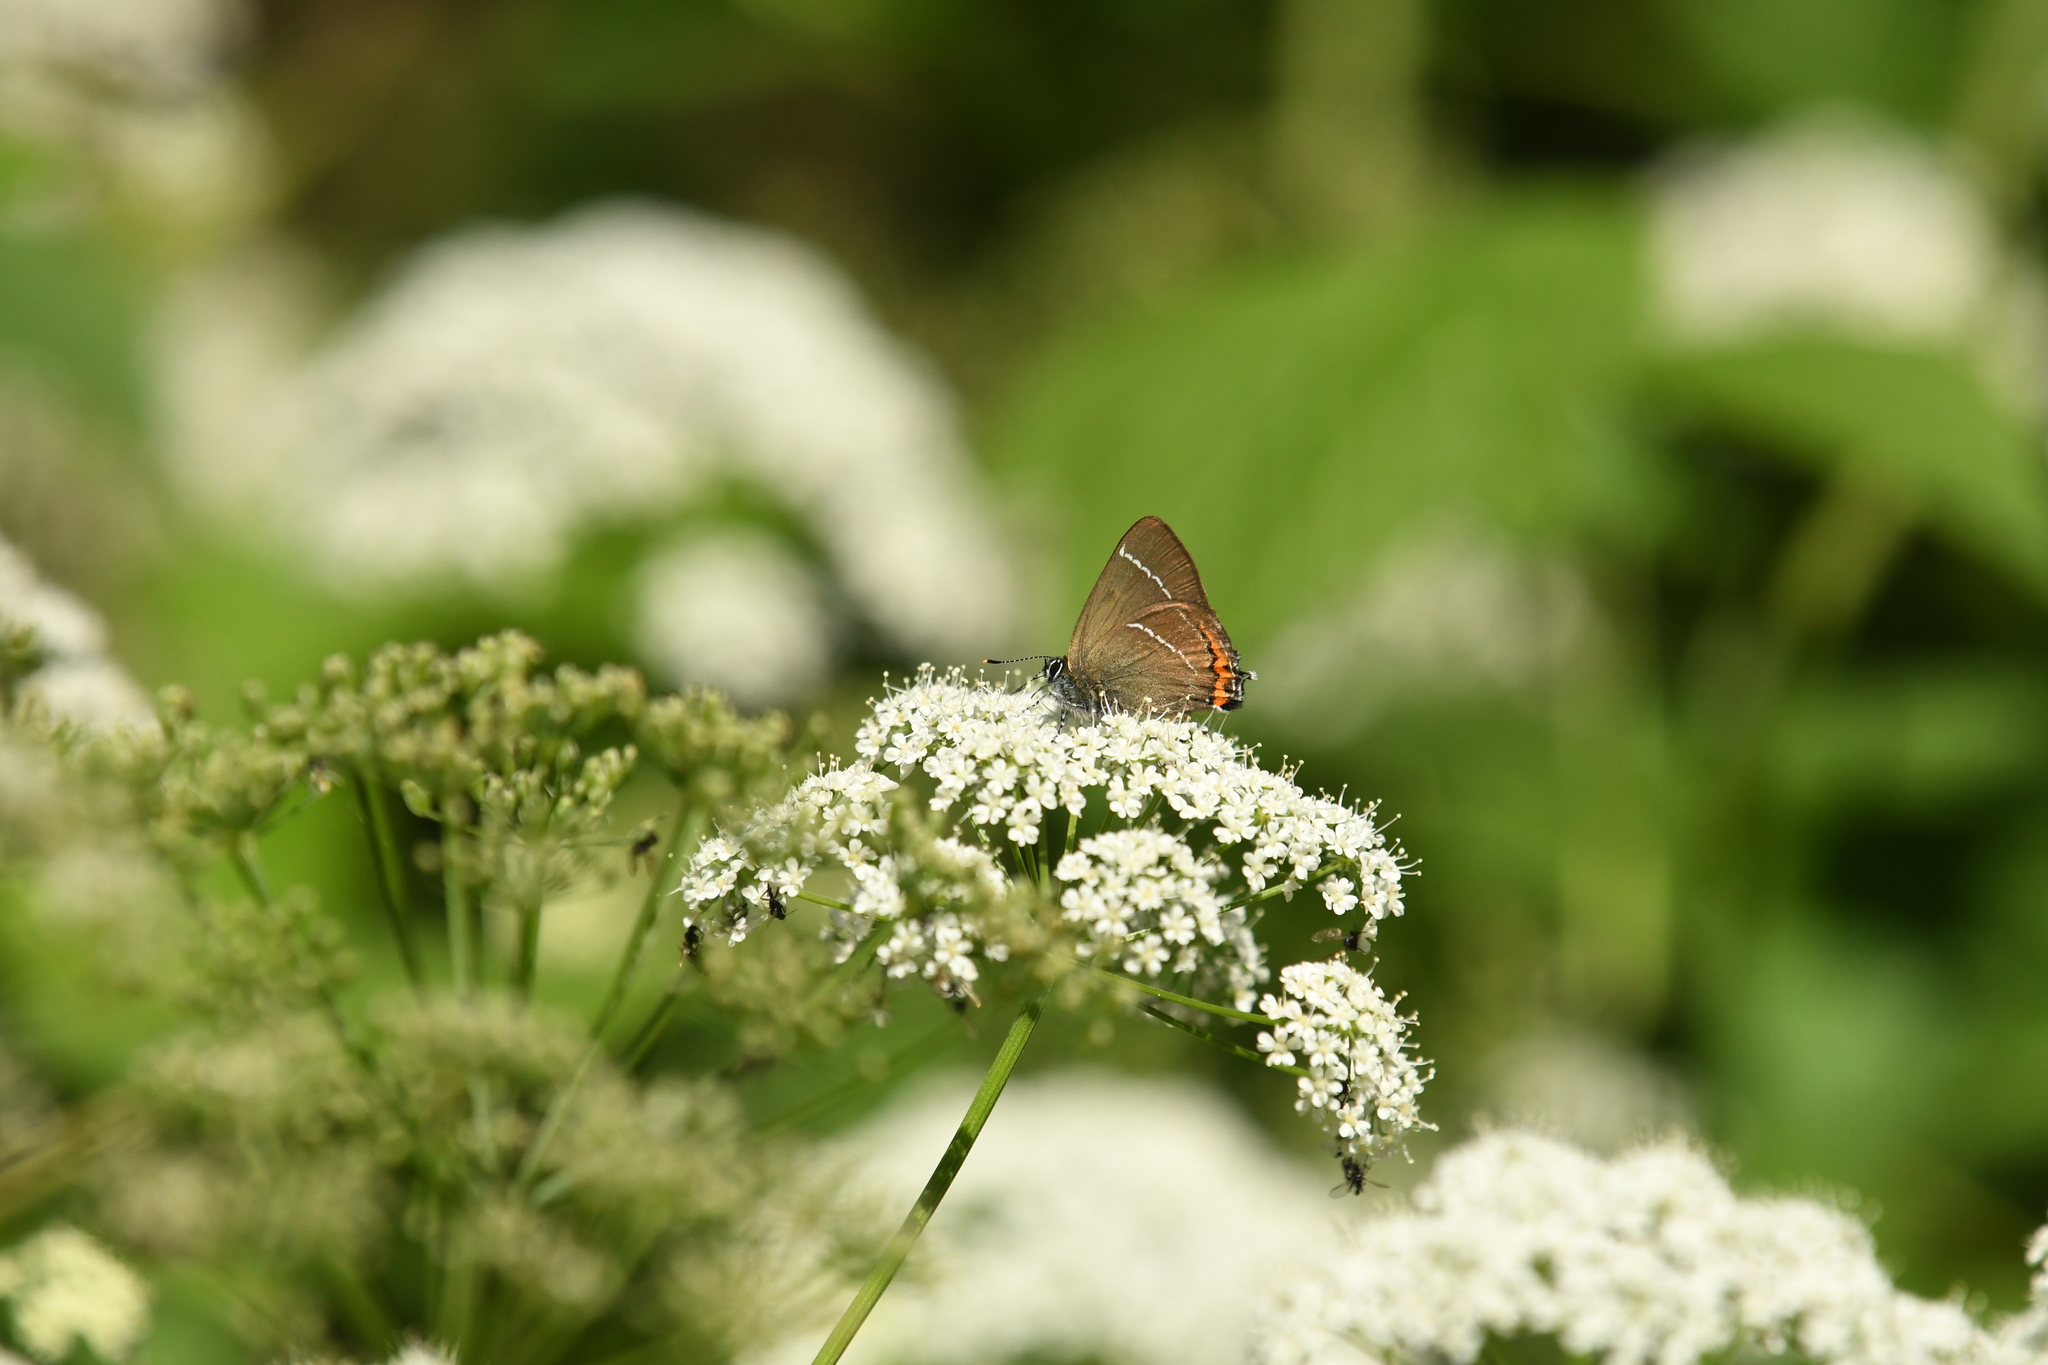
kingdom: Animalia
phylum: Arthropoda
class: Insecta
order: Lepidoptera
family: Lycaenidae
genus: Satyrium
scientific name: Satyrium w-album
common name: White-letter hairstreak
